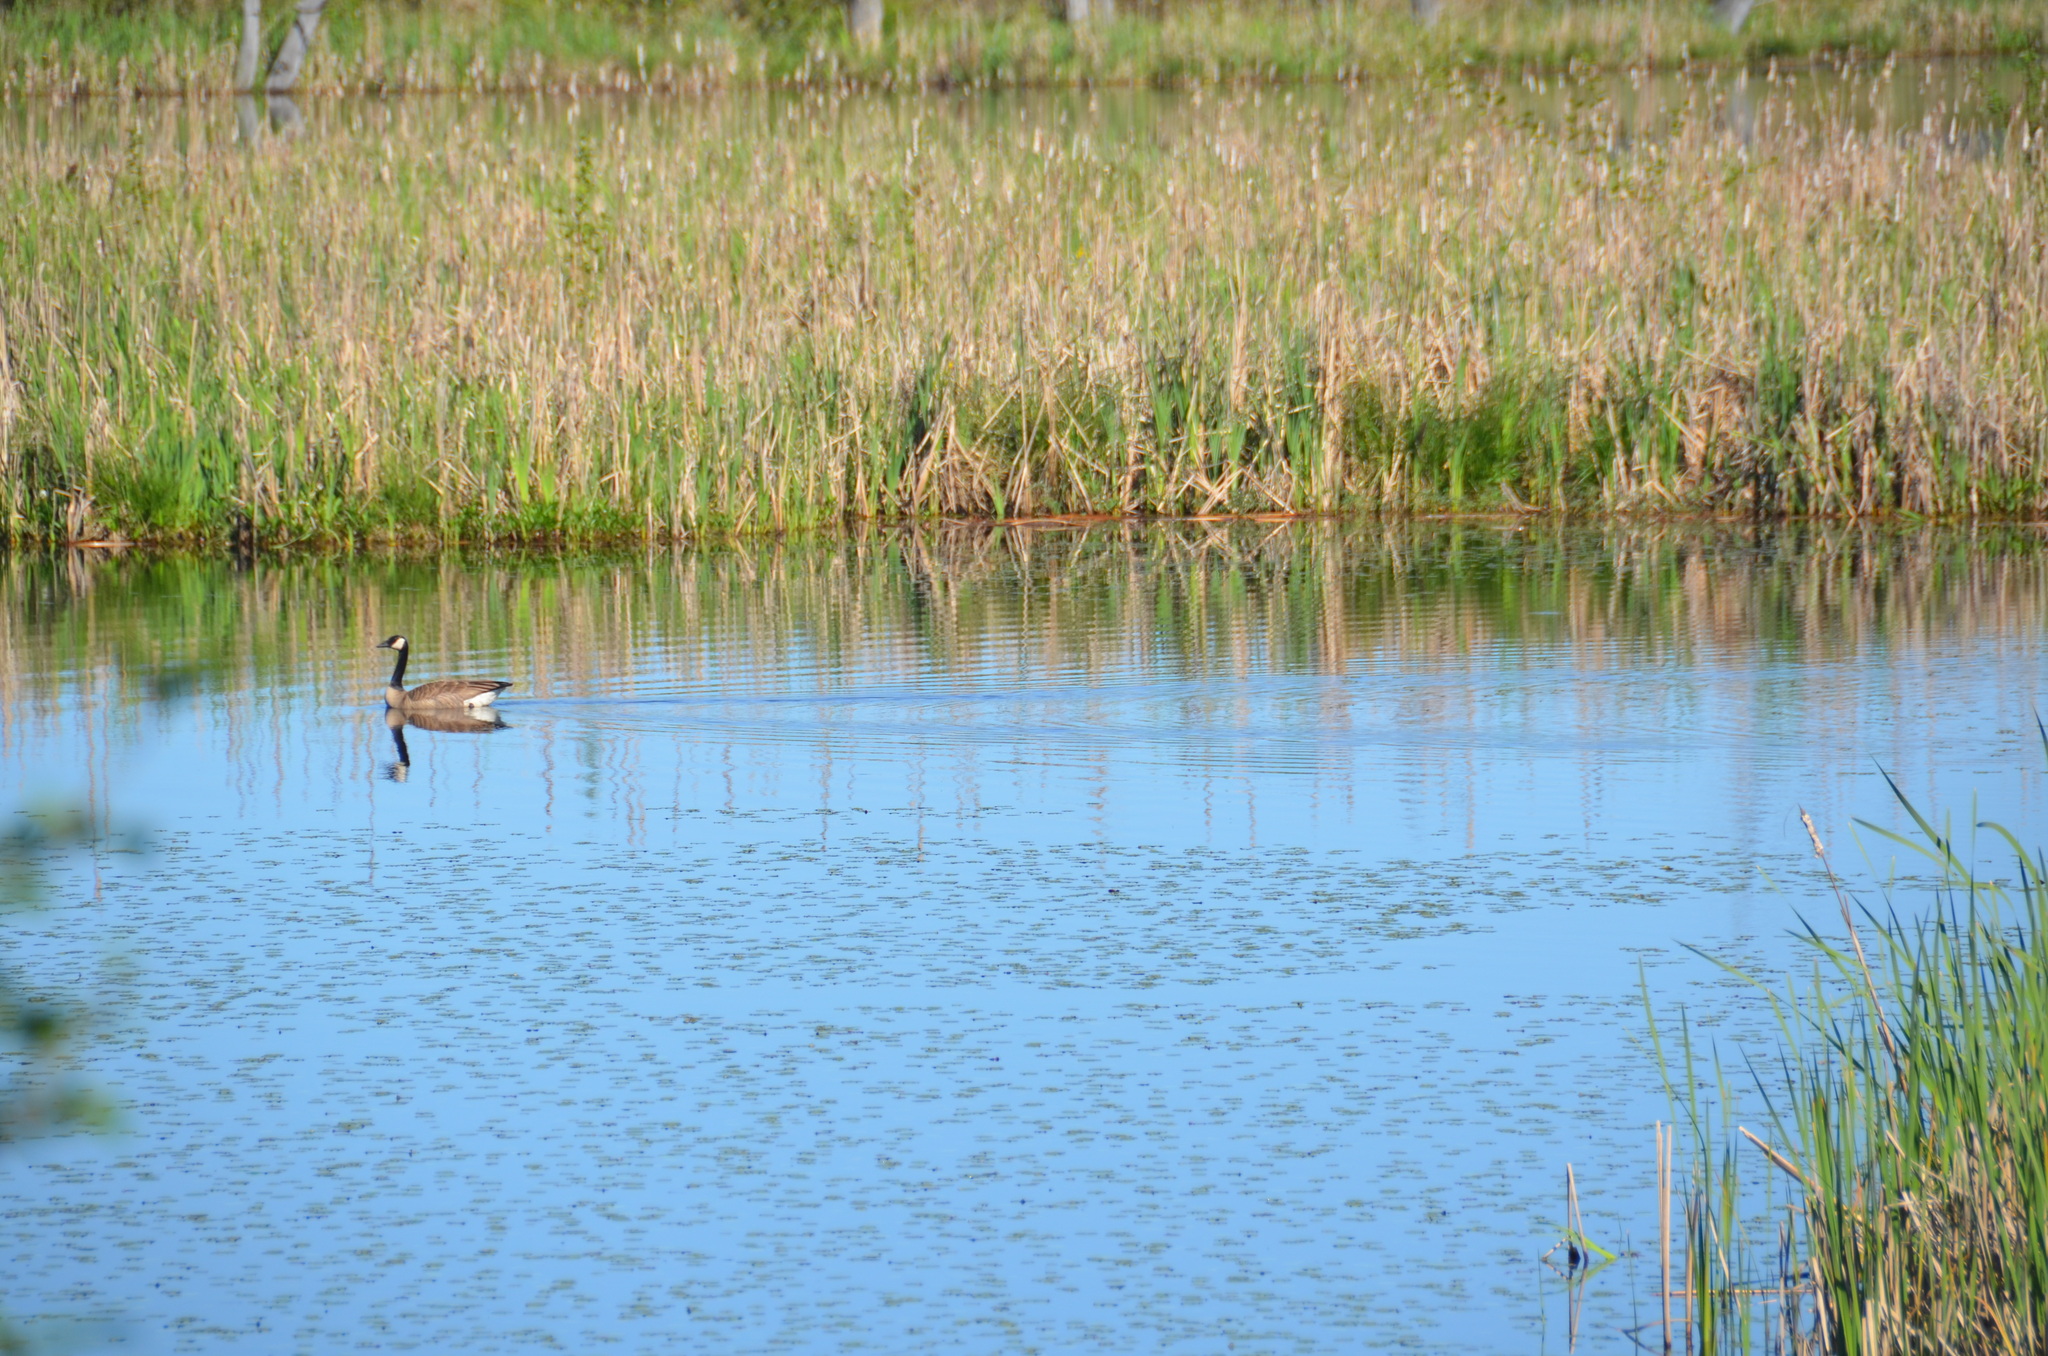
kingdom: Animalia
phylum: Chordata
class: Aves
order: Anseriformes
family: Anatidae
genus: Branta
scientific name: Branta canadensis
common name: Canada goose
